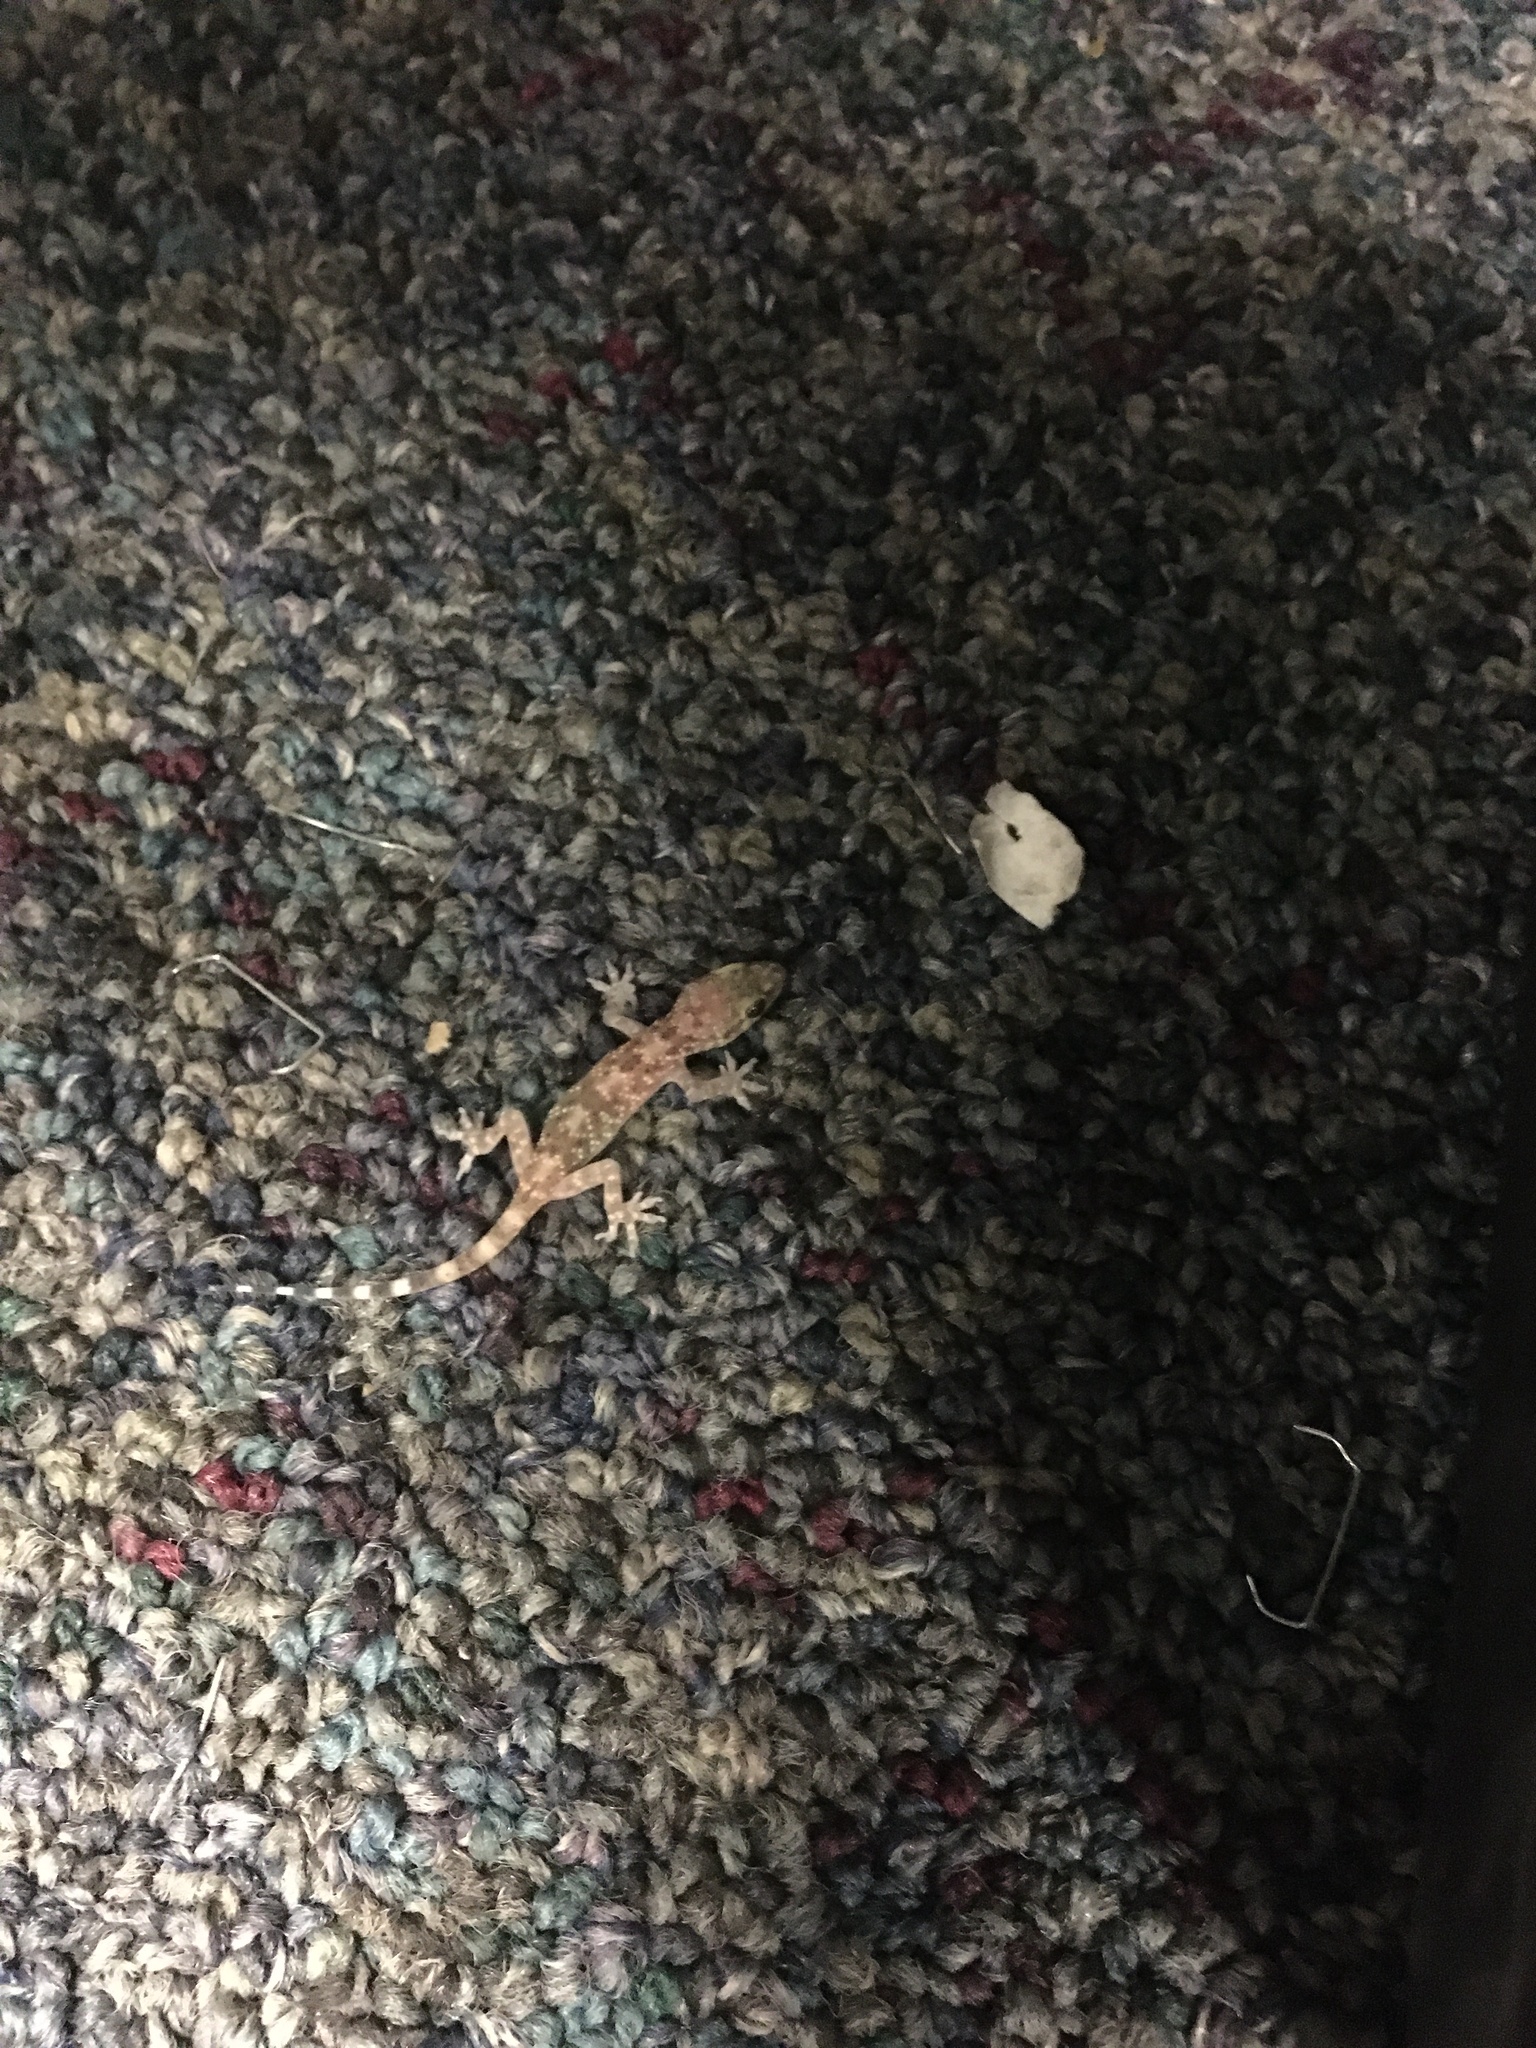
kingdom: Animalia
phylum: Chordata
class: Squamata
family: Gekkonidae
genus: Hemidactylus
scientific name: Hemidactylus turcicus
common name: Turkish gecko
